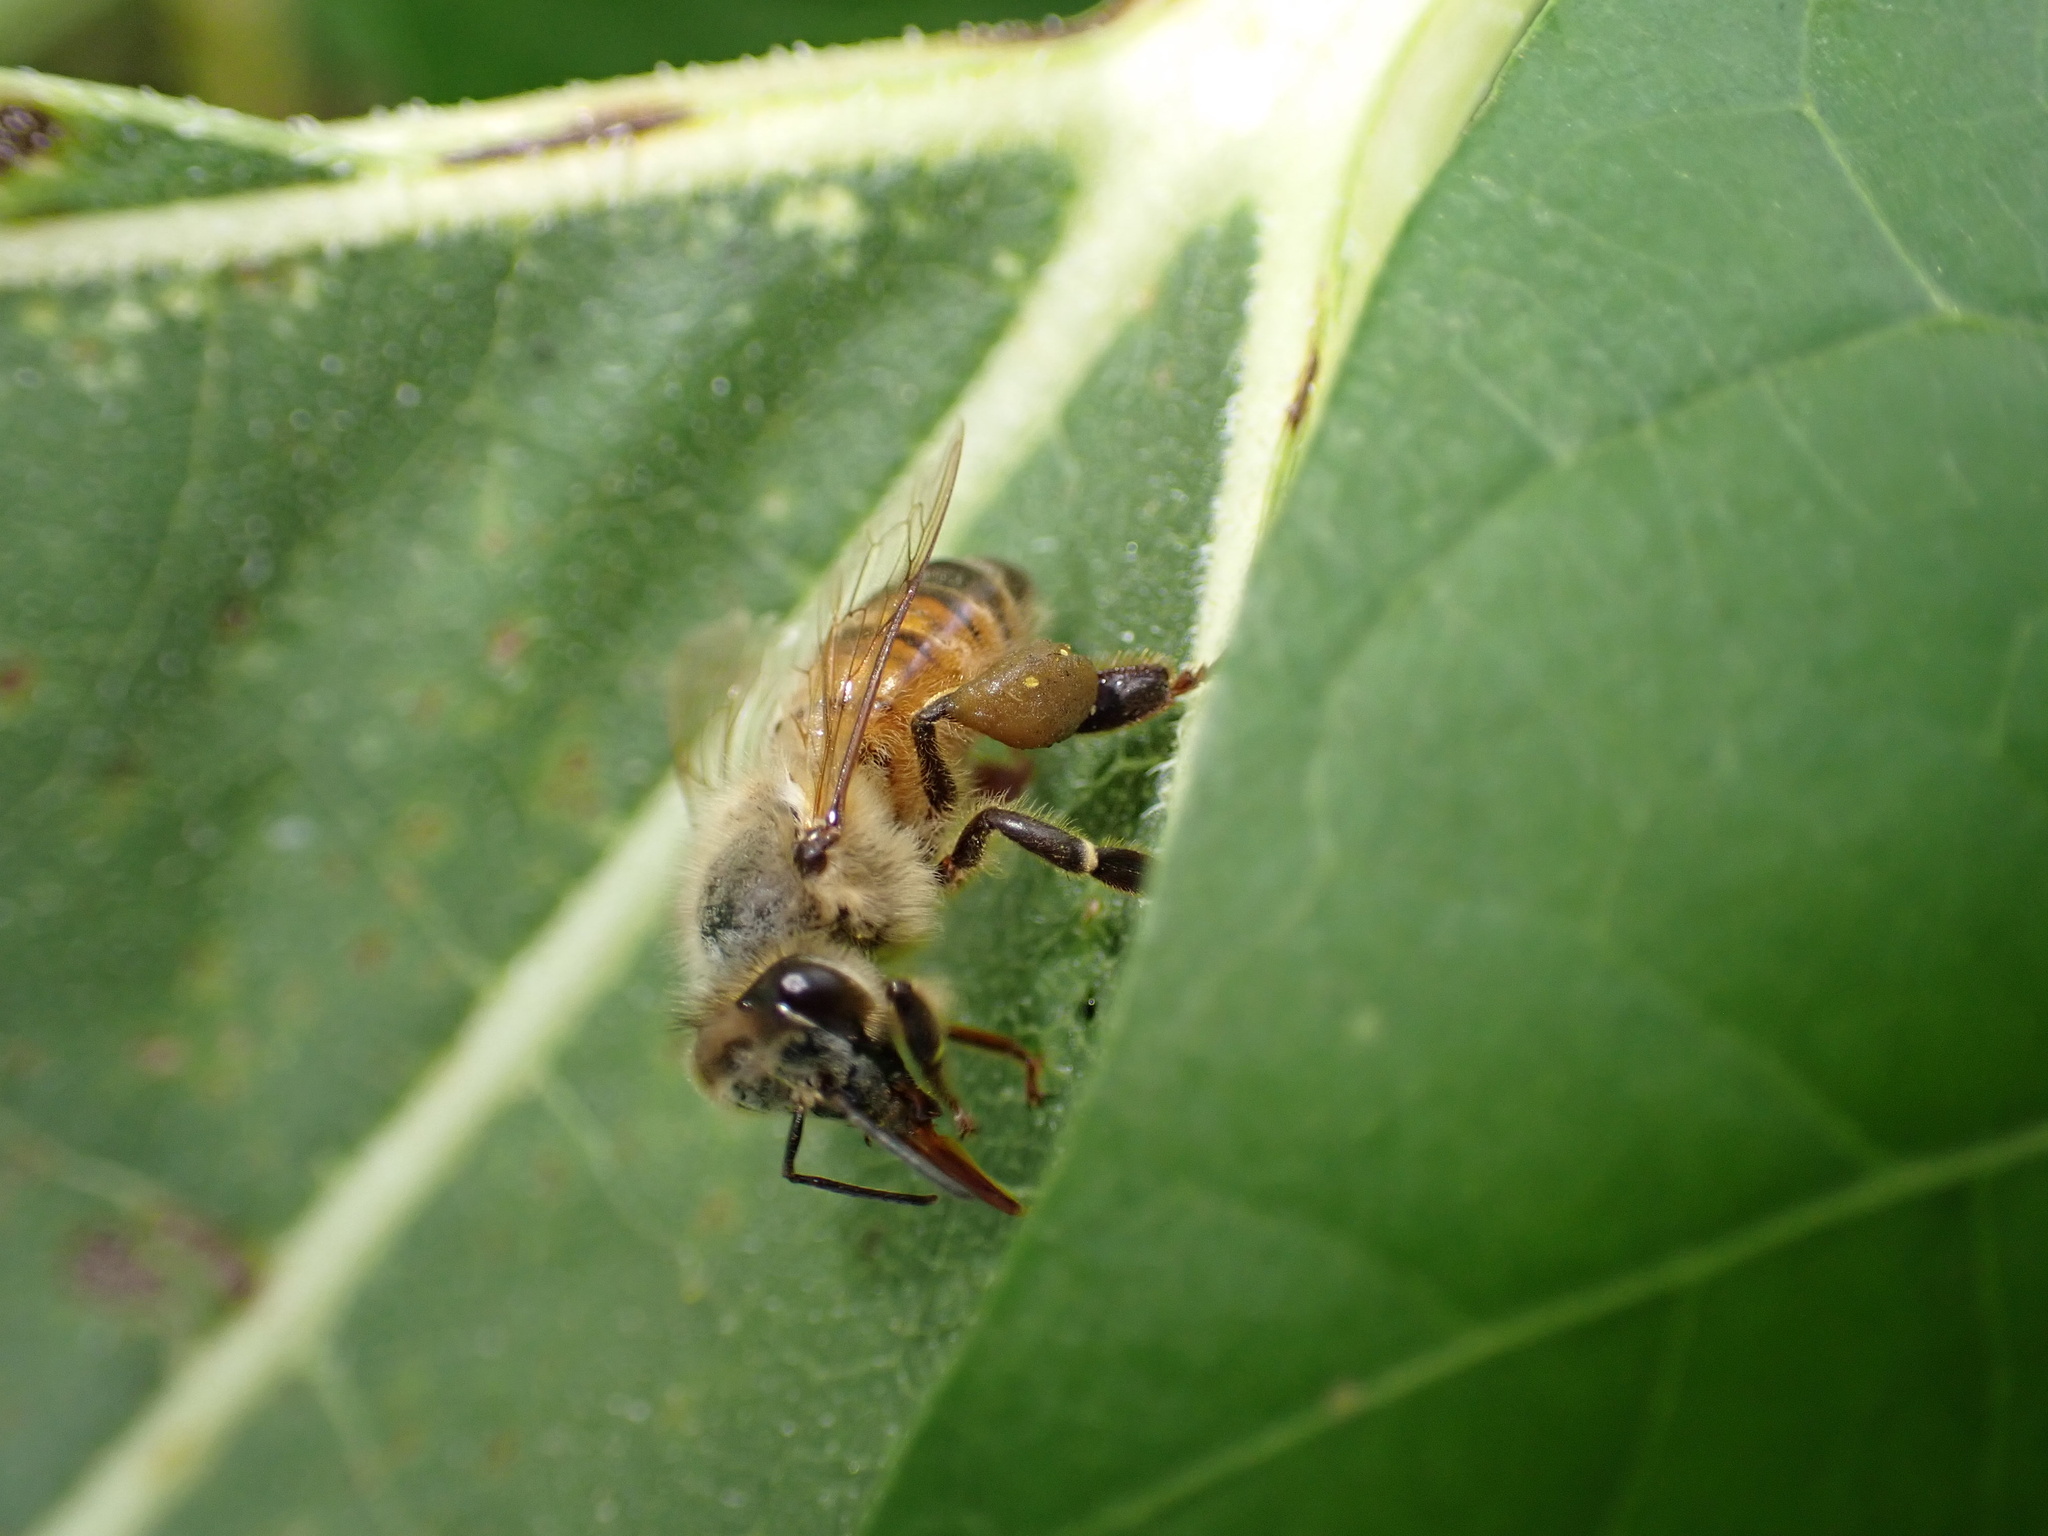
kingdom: Animalia
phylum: Arthropoda
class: Insecta
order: Hymenoptera
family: Apidae
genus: Apis
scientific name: Apis mellifera
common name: Honey bee
